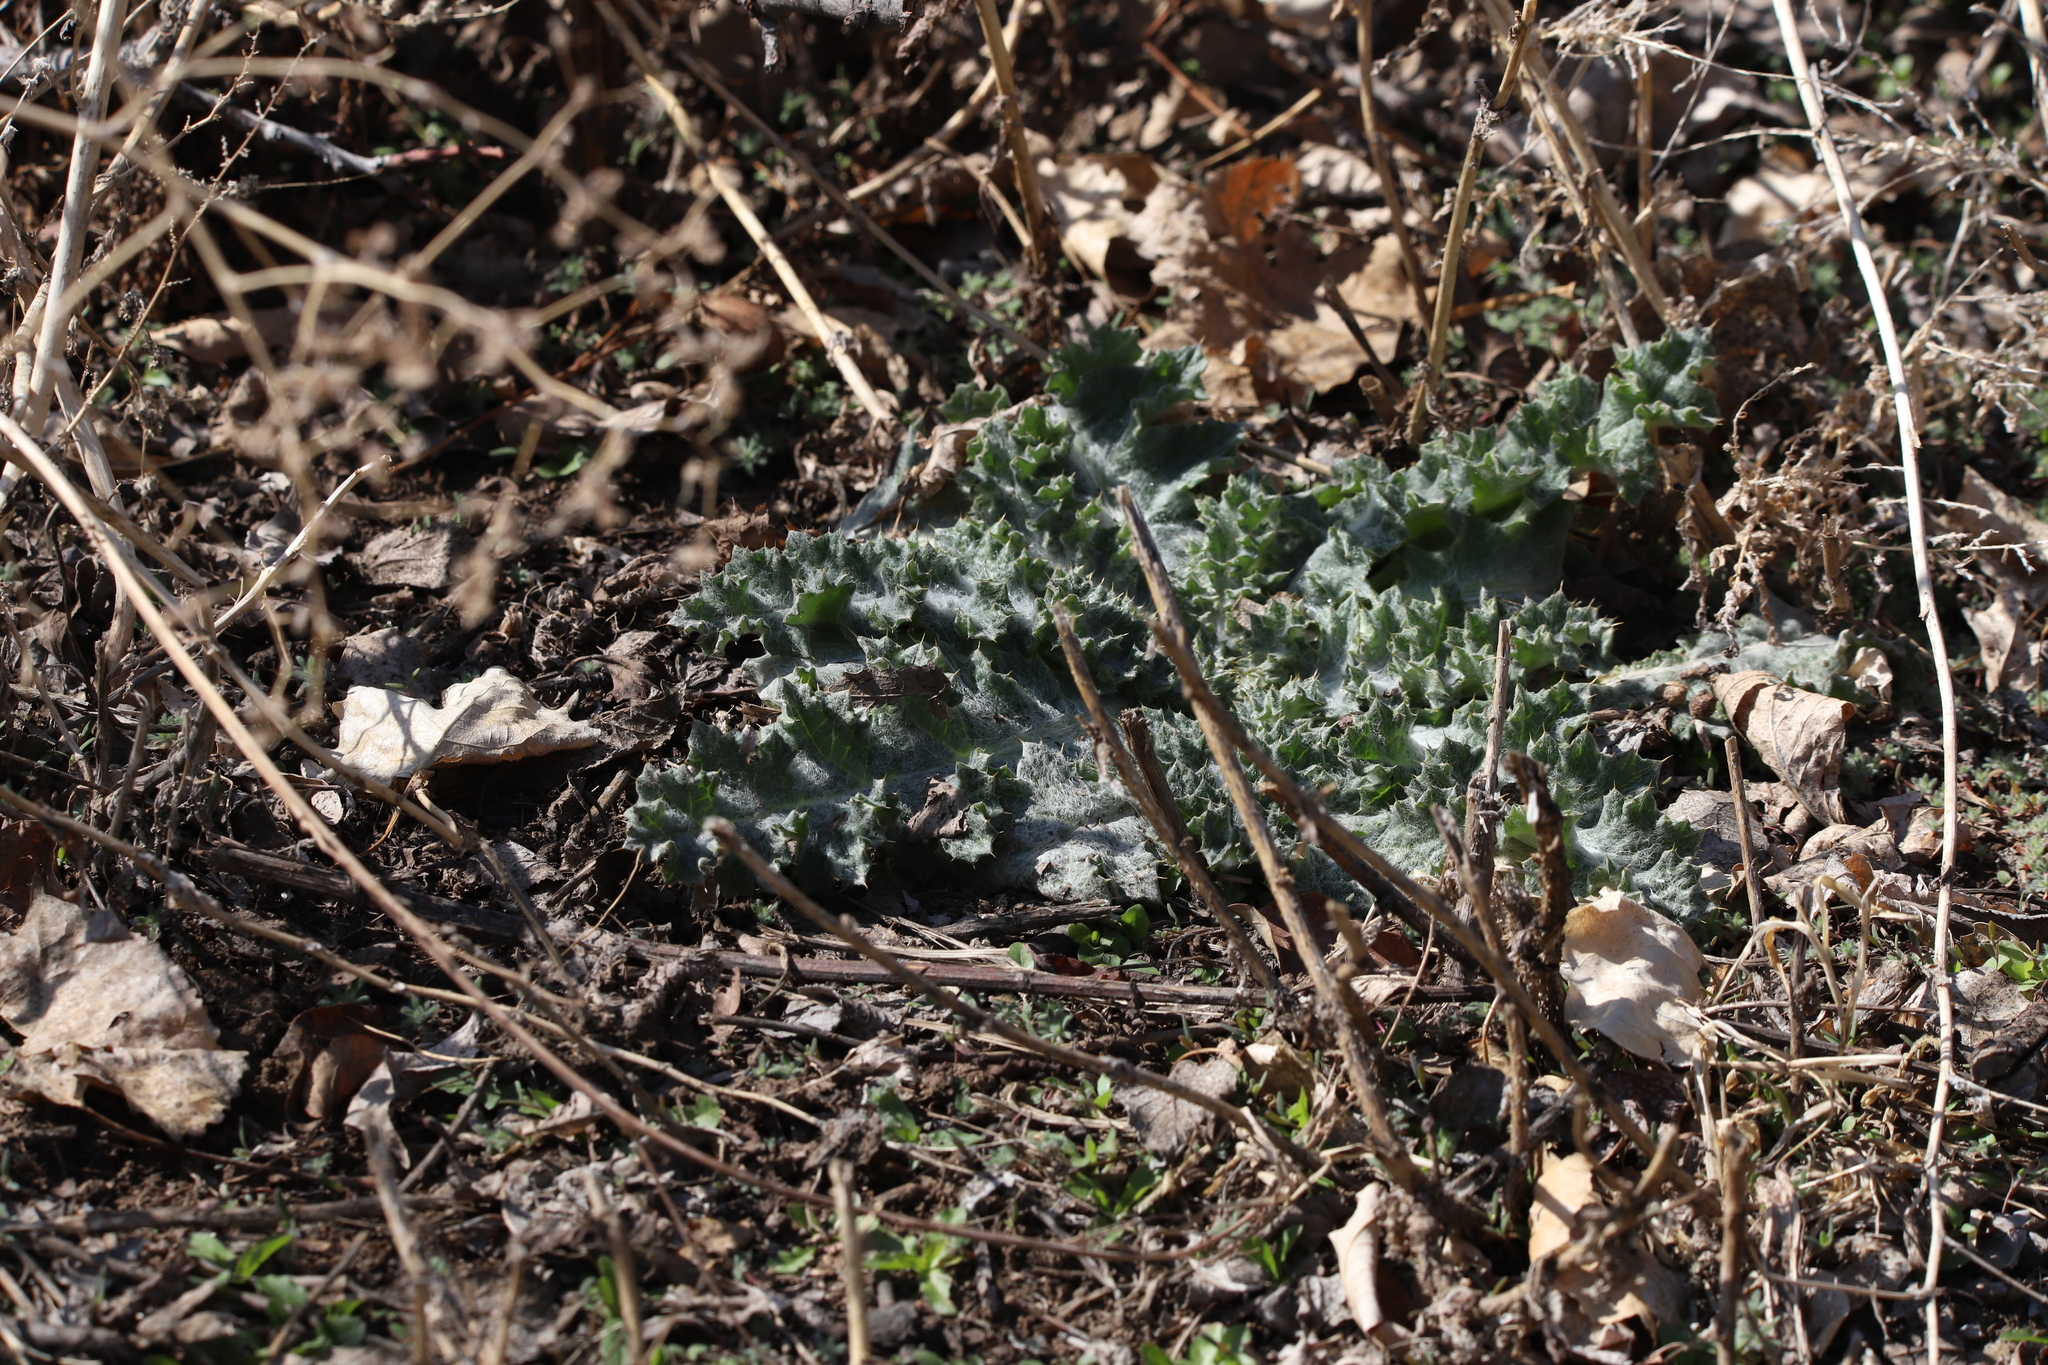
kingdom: Plantae
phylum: Tracheophyta
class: Magnoliopsida
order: Asterales
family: Asteraceae
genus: Onopordum
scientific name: Onopordum acanthium
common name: Scotch thistle
